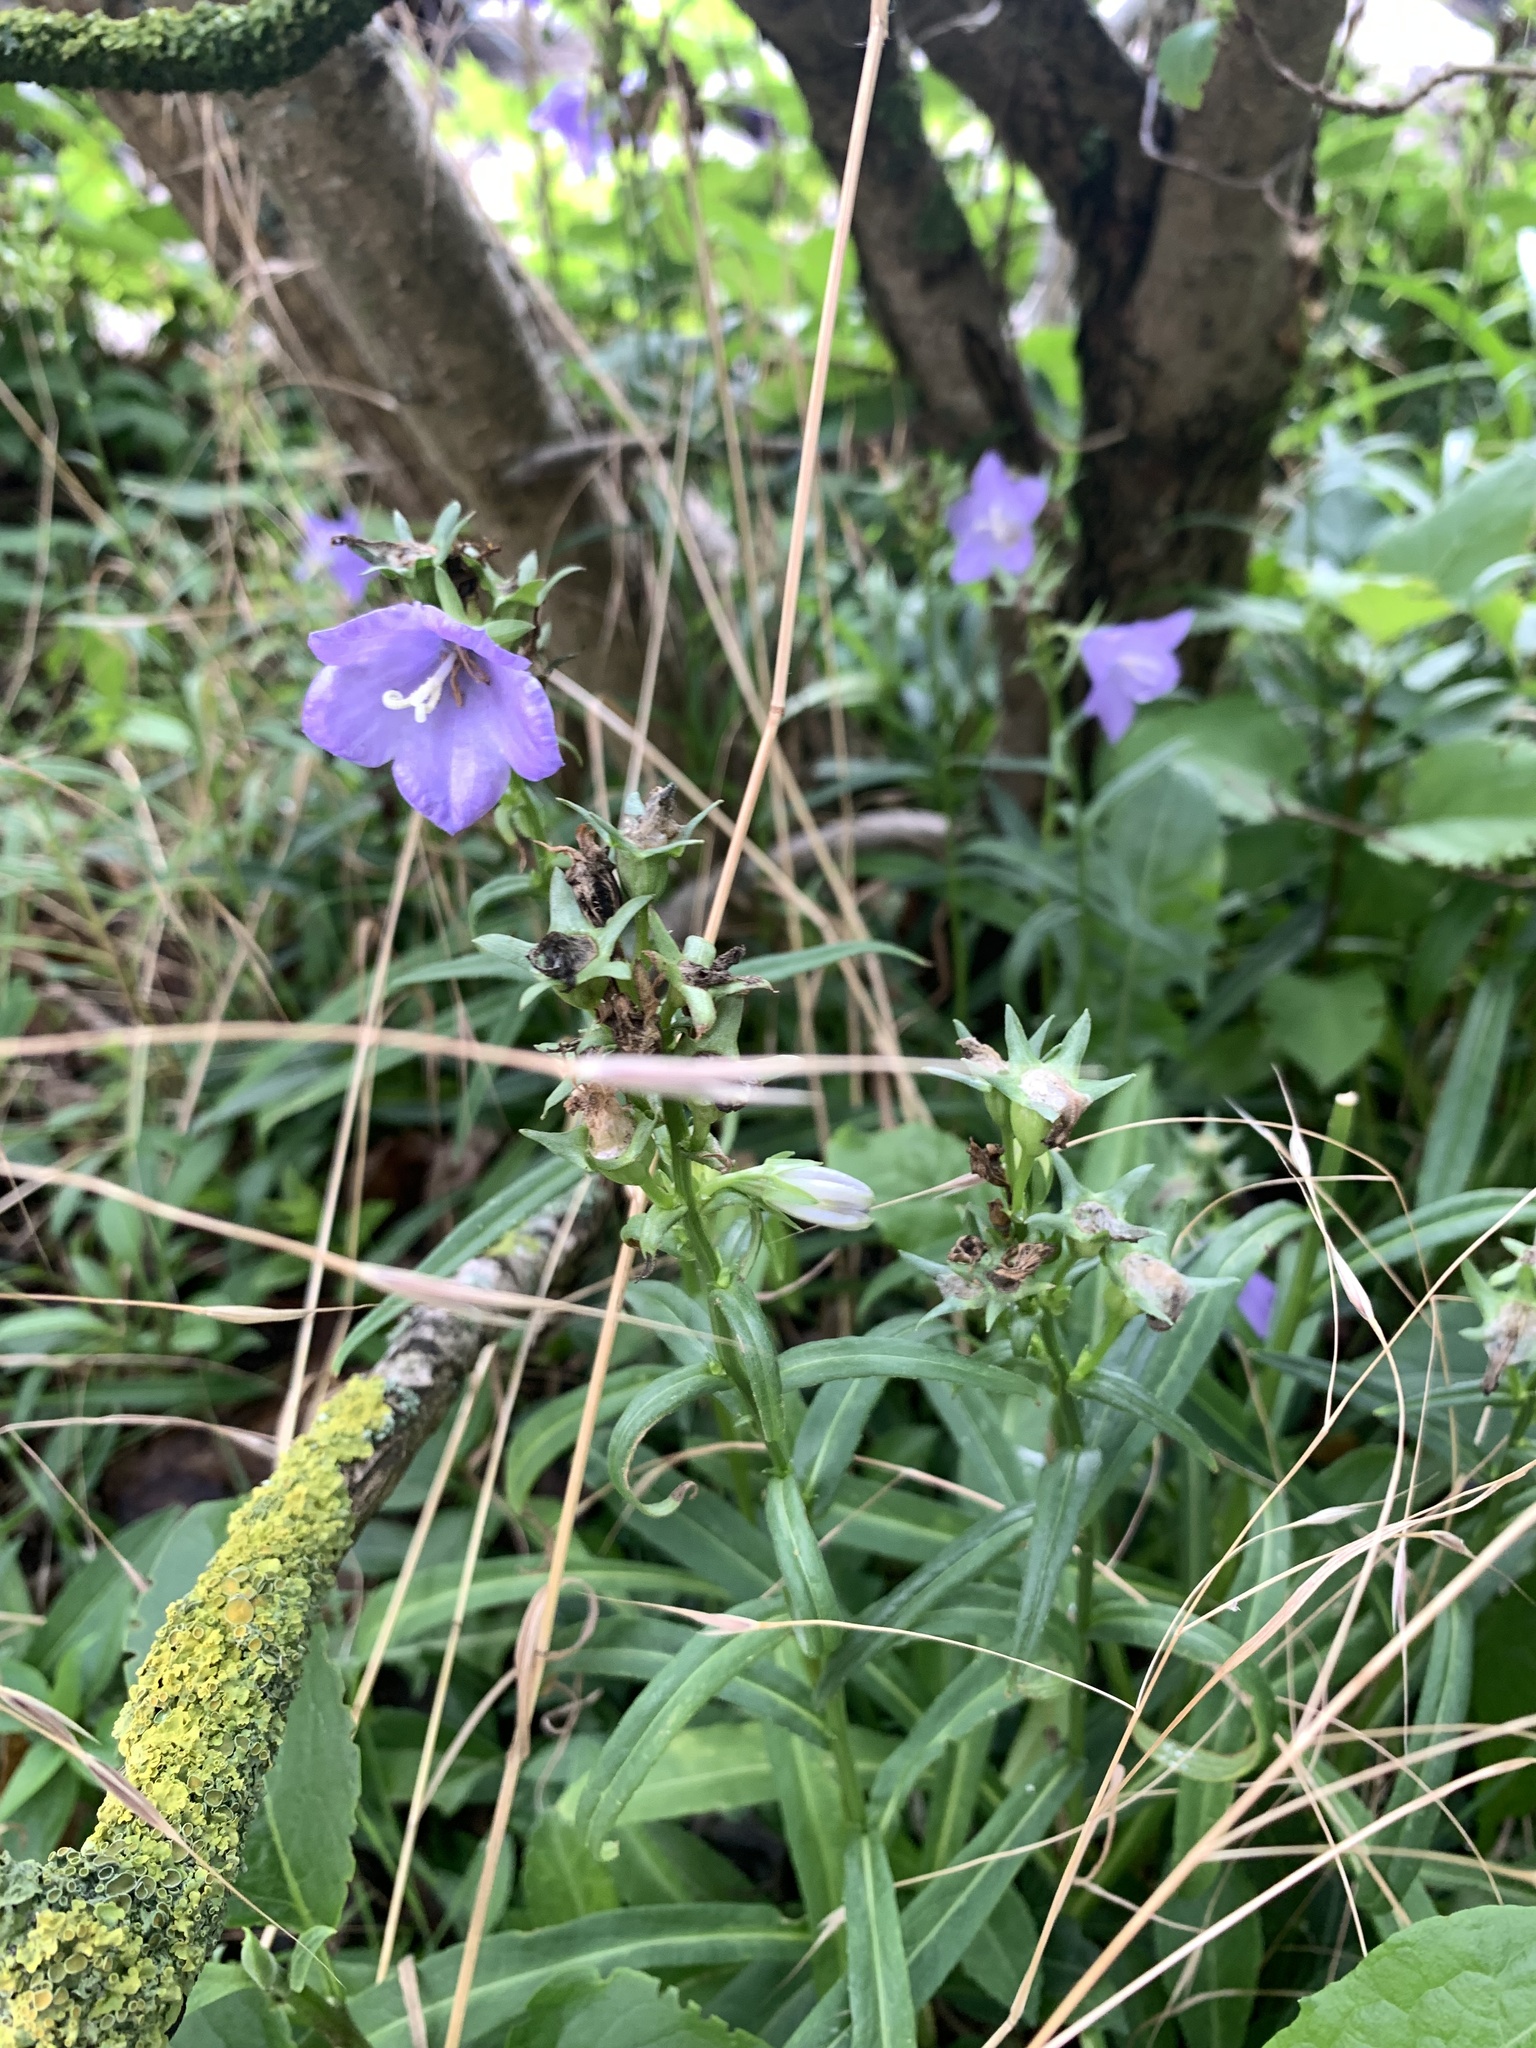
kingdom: Plantae
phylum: Tracheophyta
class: Magnoliopsida
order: Asterales
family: Campanulaceae
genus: Campanula
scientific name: Campanula persicifolia
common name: Peach-leaved bellflower
